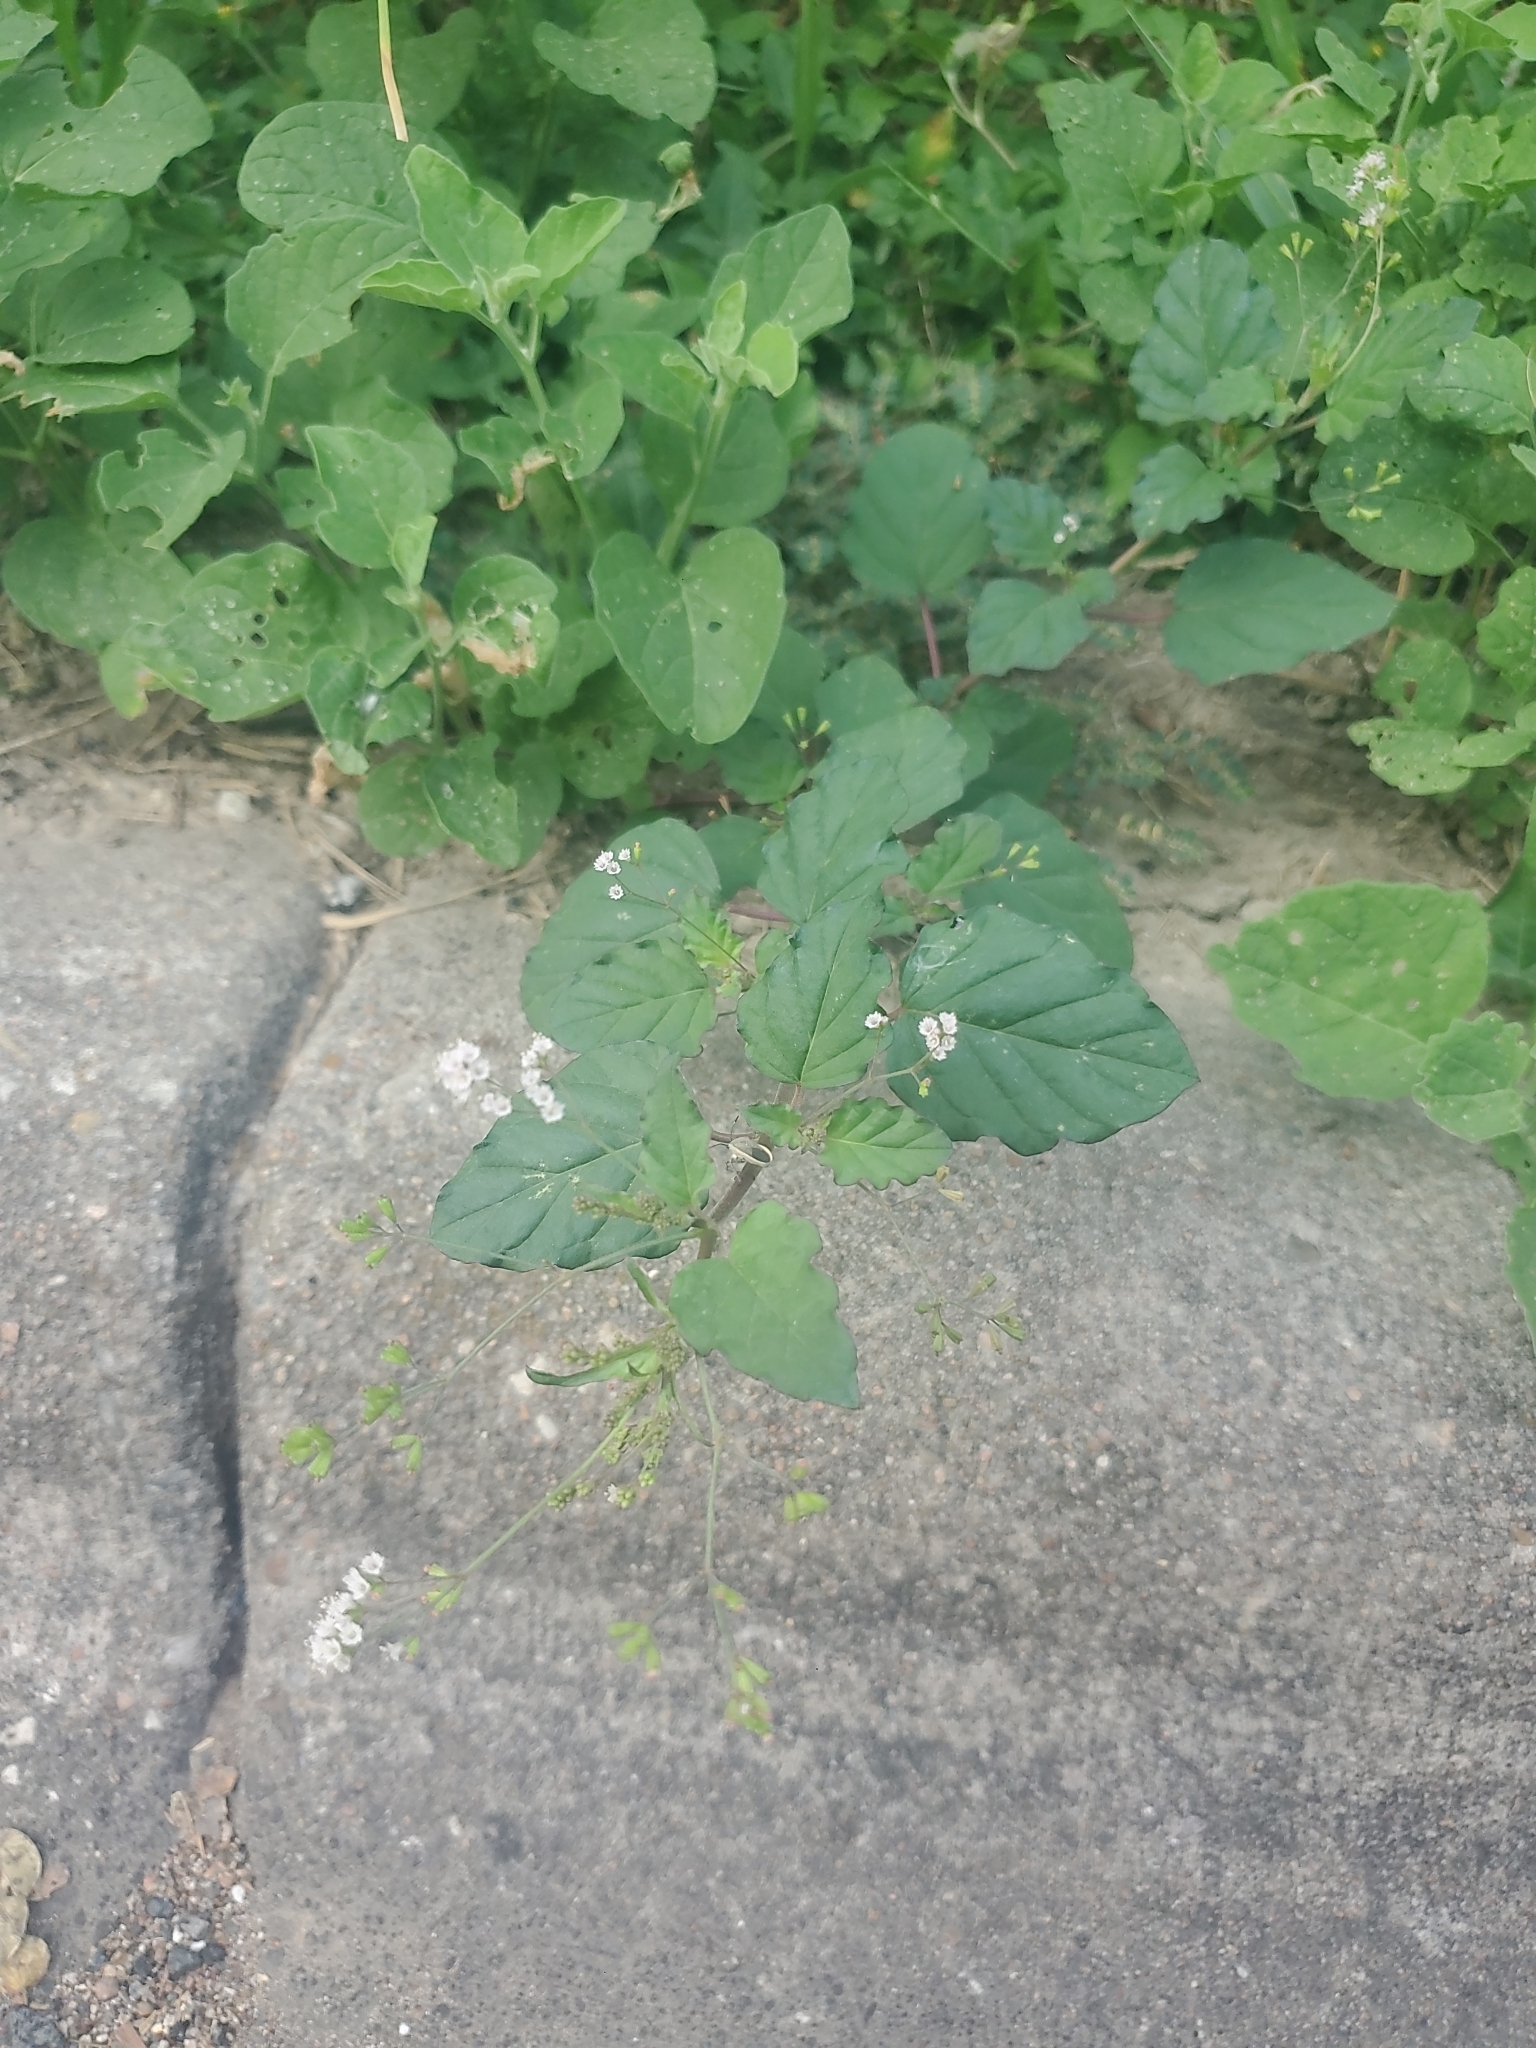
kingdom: Plantae
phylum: Tracheophyta
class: Magnoliopsida
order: Caryophyllales
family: Nyctaginaceae
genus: Boerhavia
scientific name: Boerhavia erecta
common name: Erect spiderling
